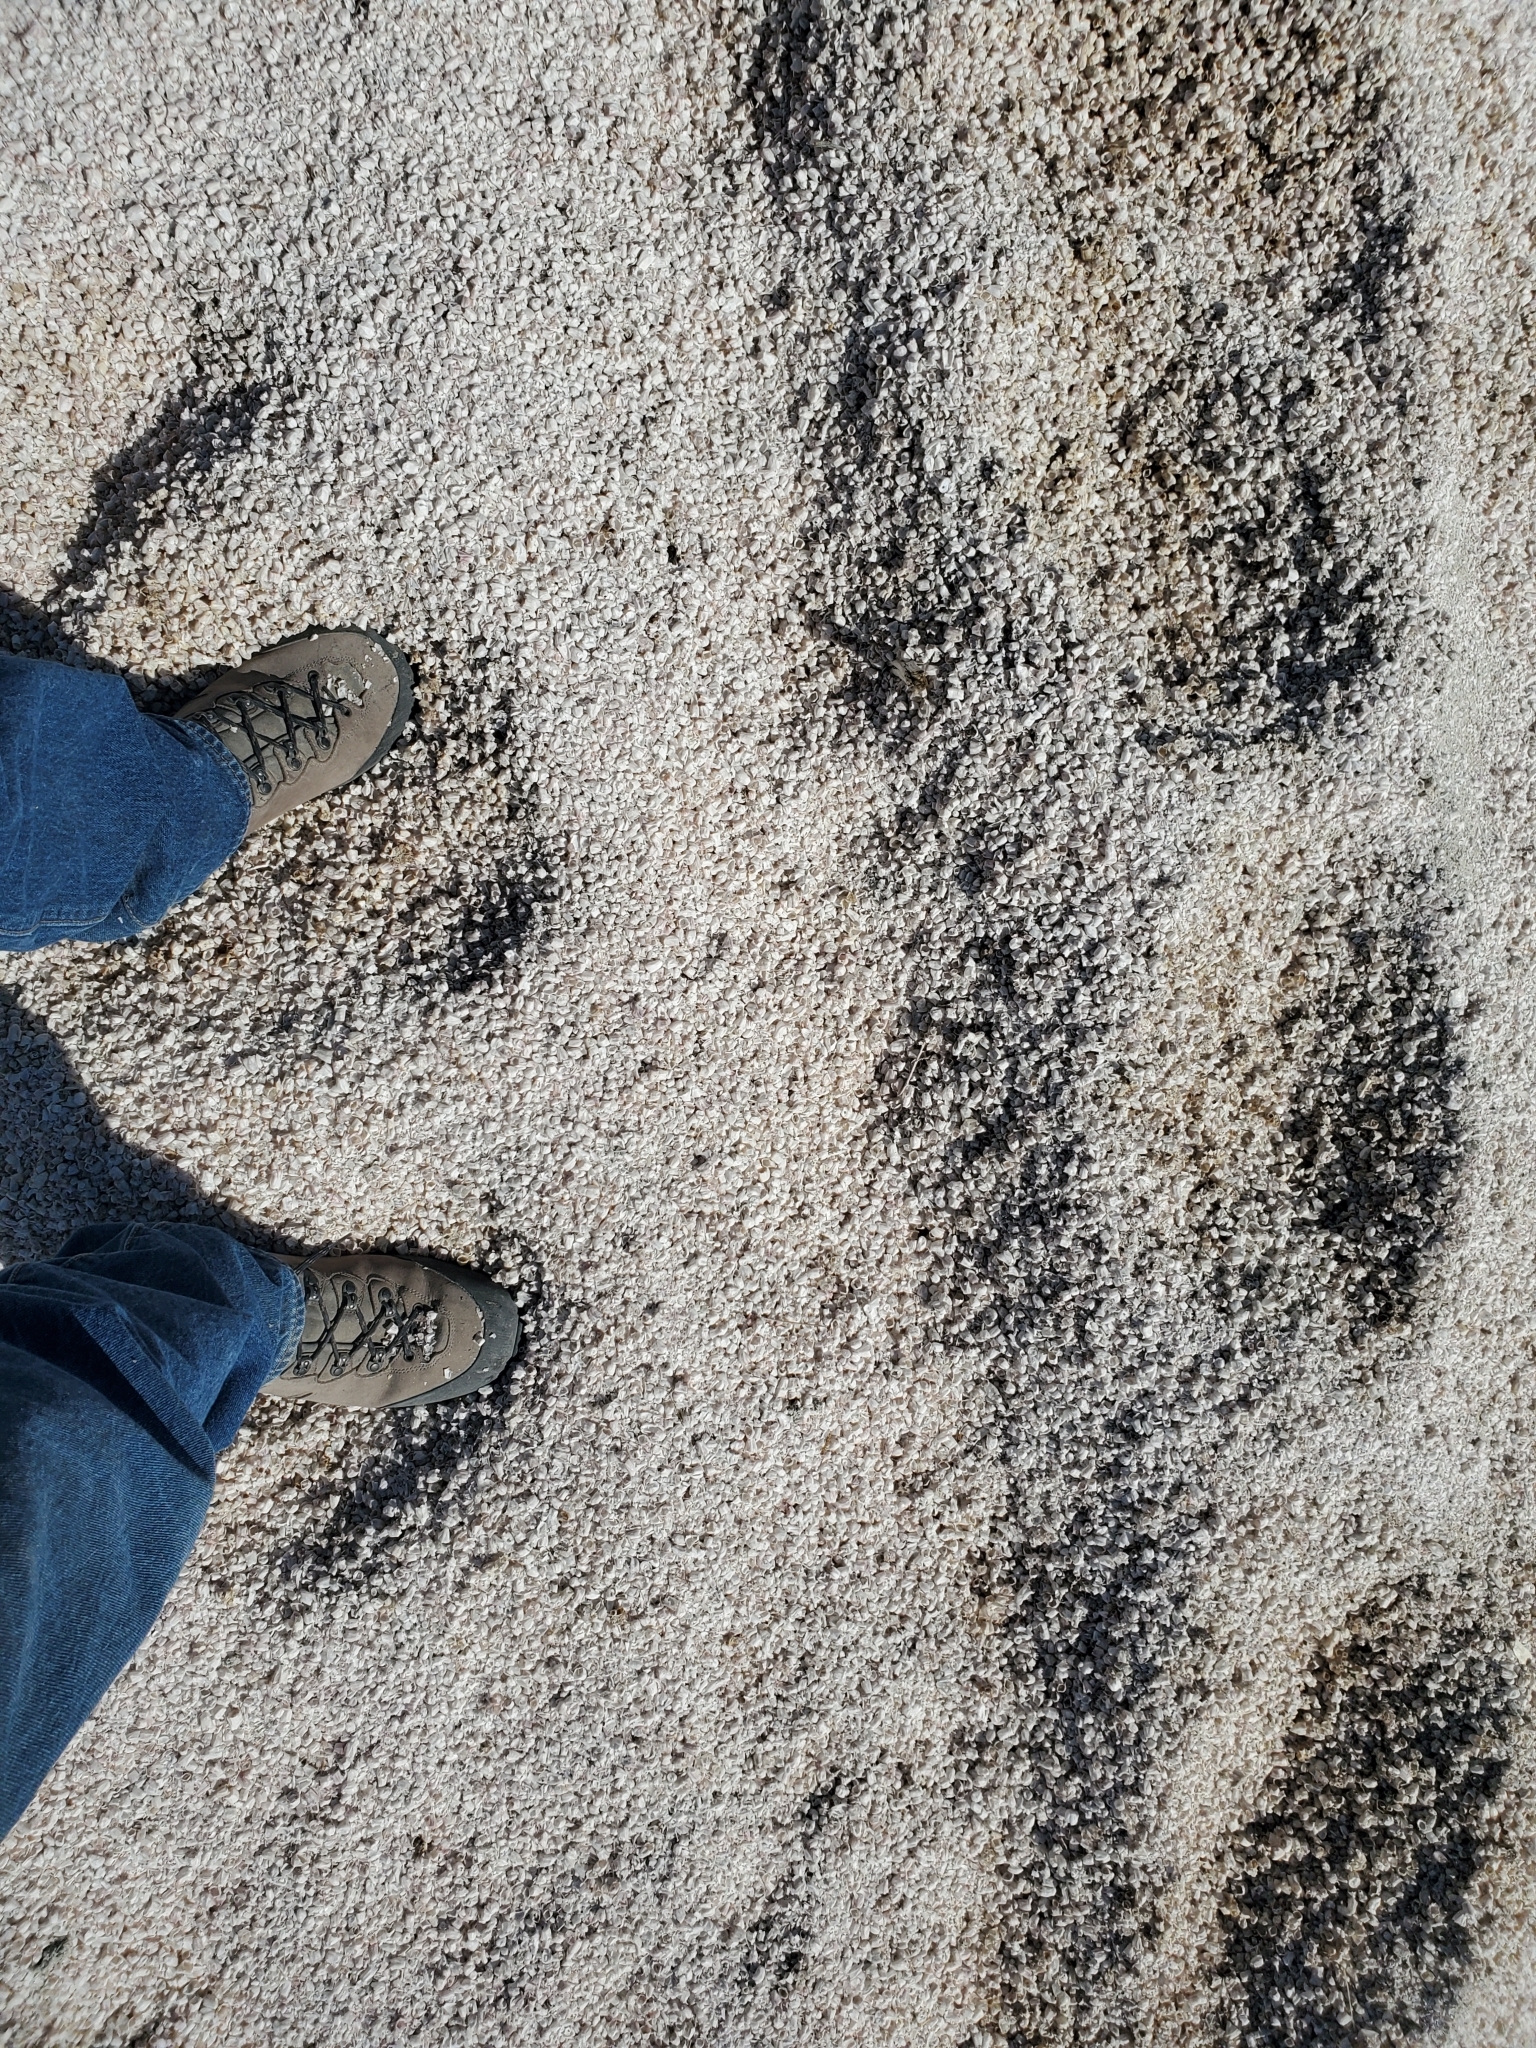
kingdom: Animalia
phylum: Arthropoda
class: Maxillopoda
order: Sessilia
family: Balanidae
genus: Amphibalanus
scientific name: Amphibalanus amphitrite
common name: Striped acorn barnacle
